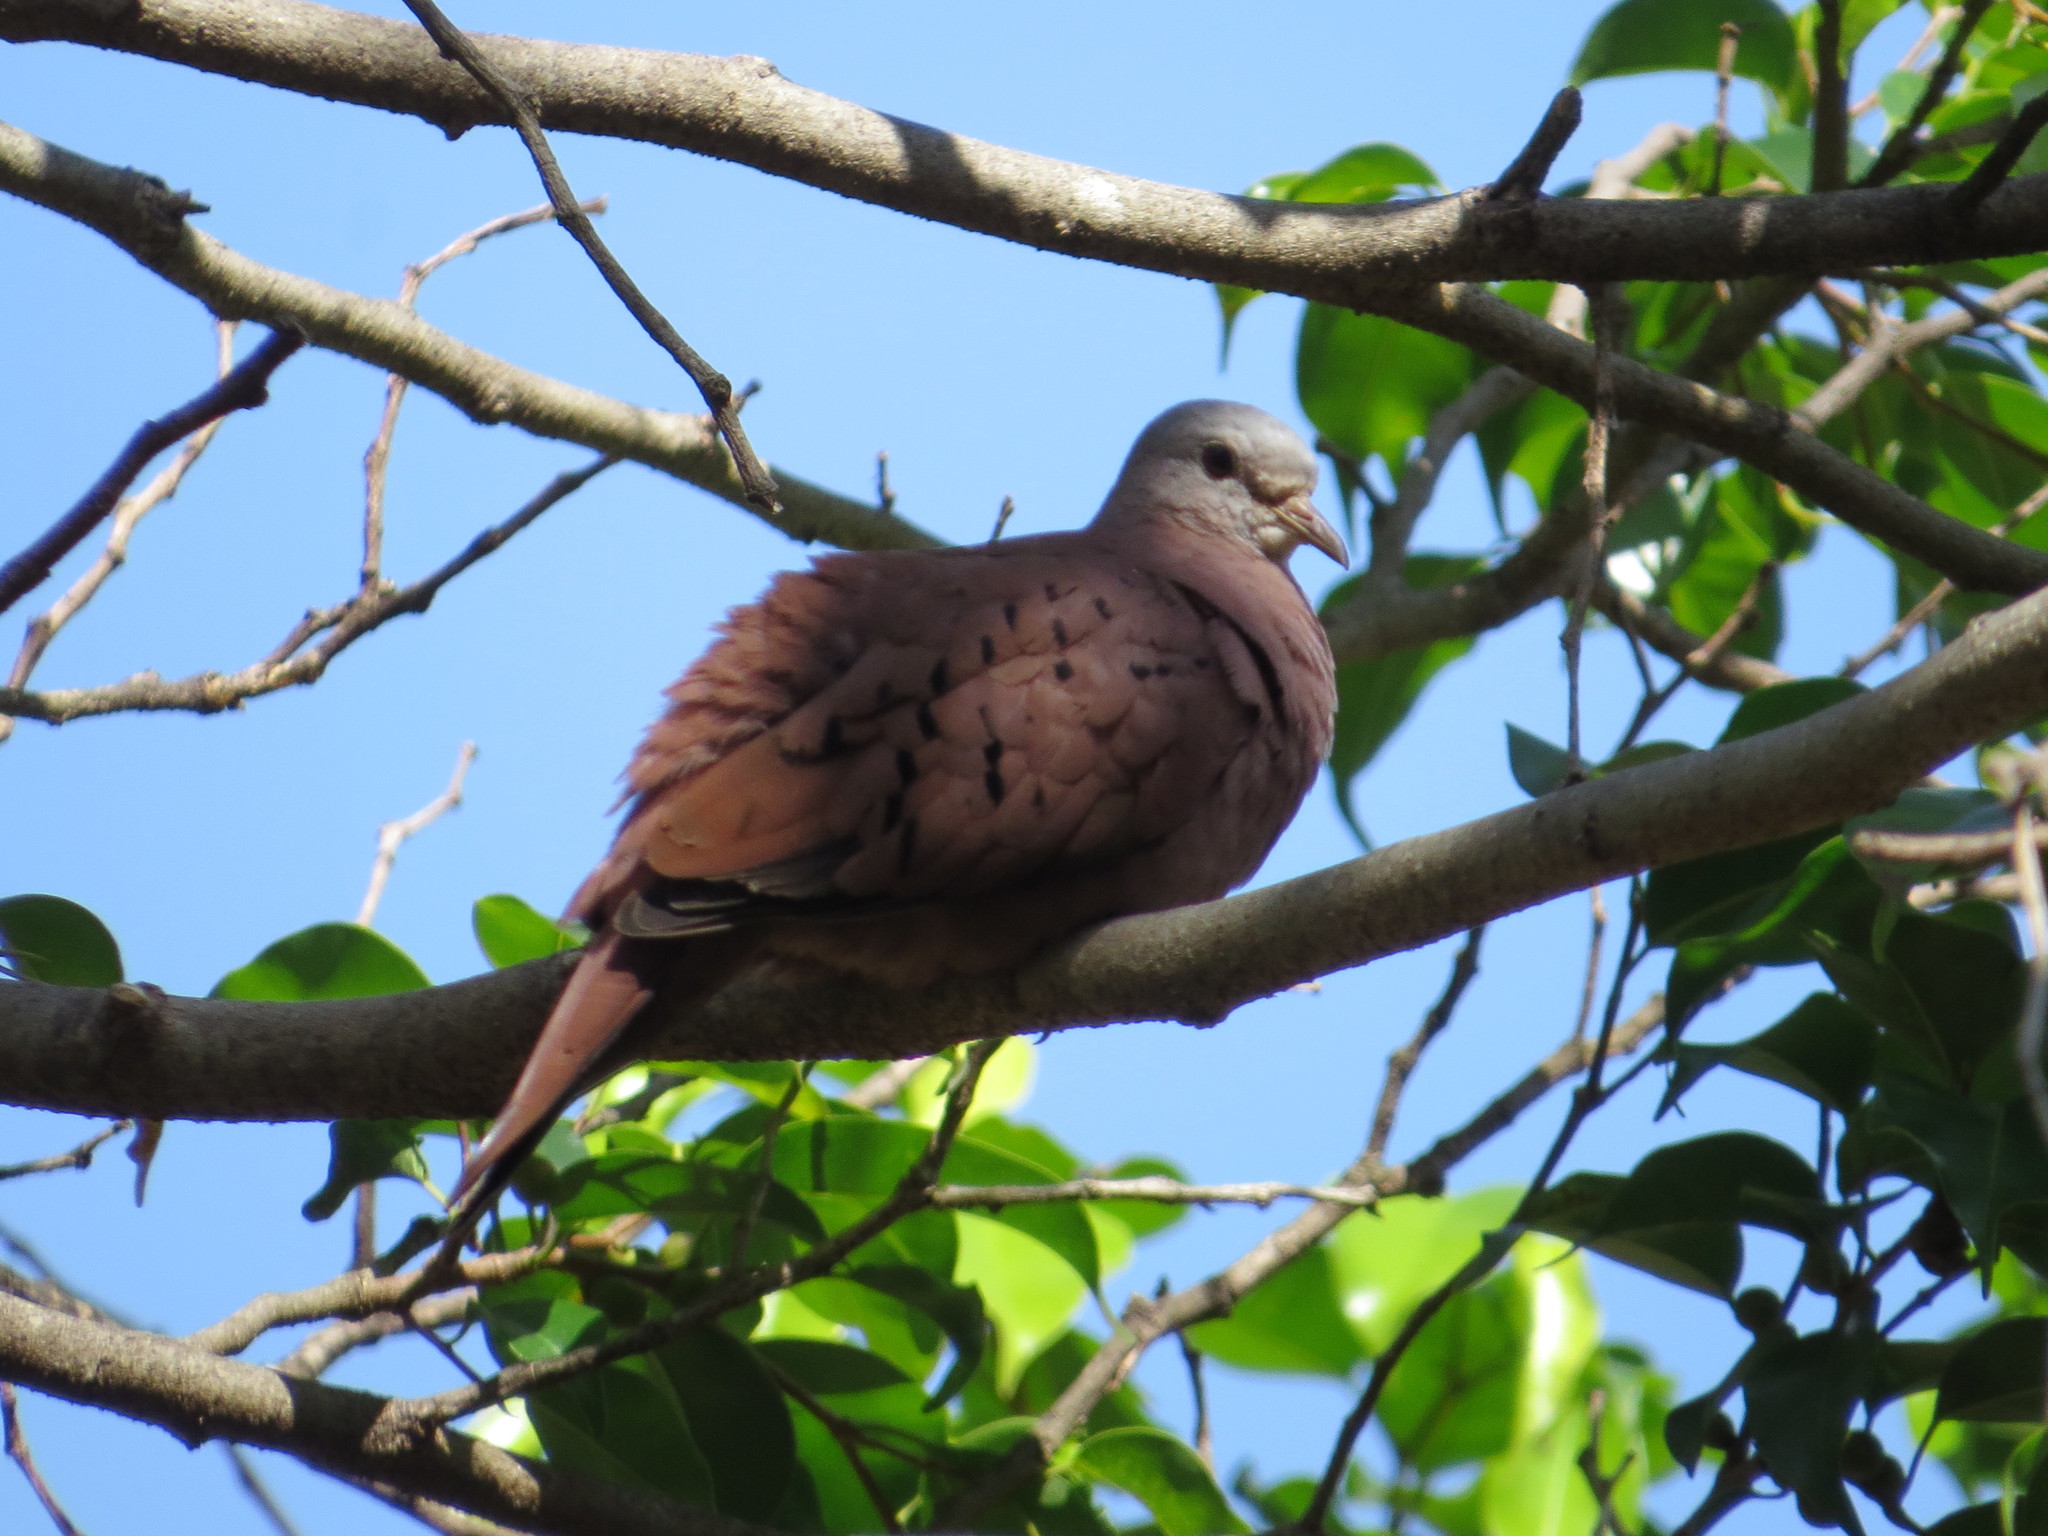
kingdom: Animalia
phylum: Chordata
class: Aves
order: Columbiformes
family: Columbidae
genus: Columbina
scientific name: Columbina talpacoti
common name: Ruddy ground dove
